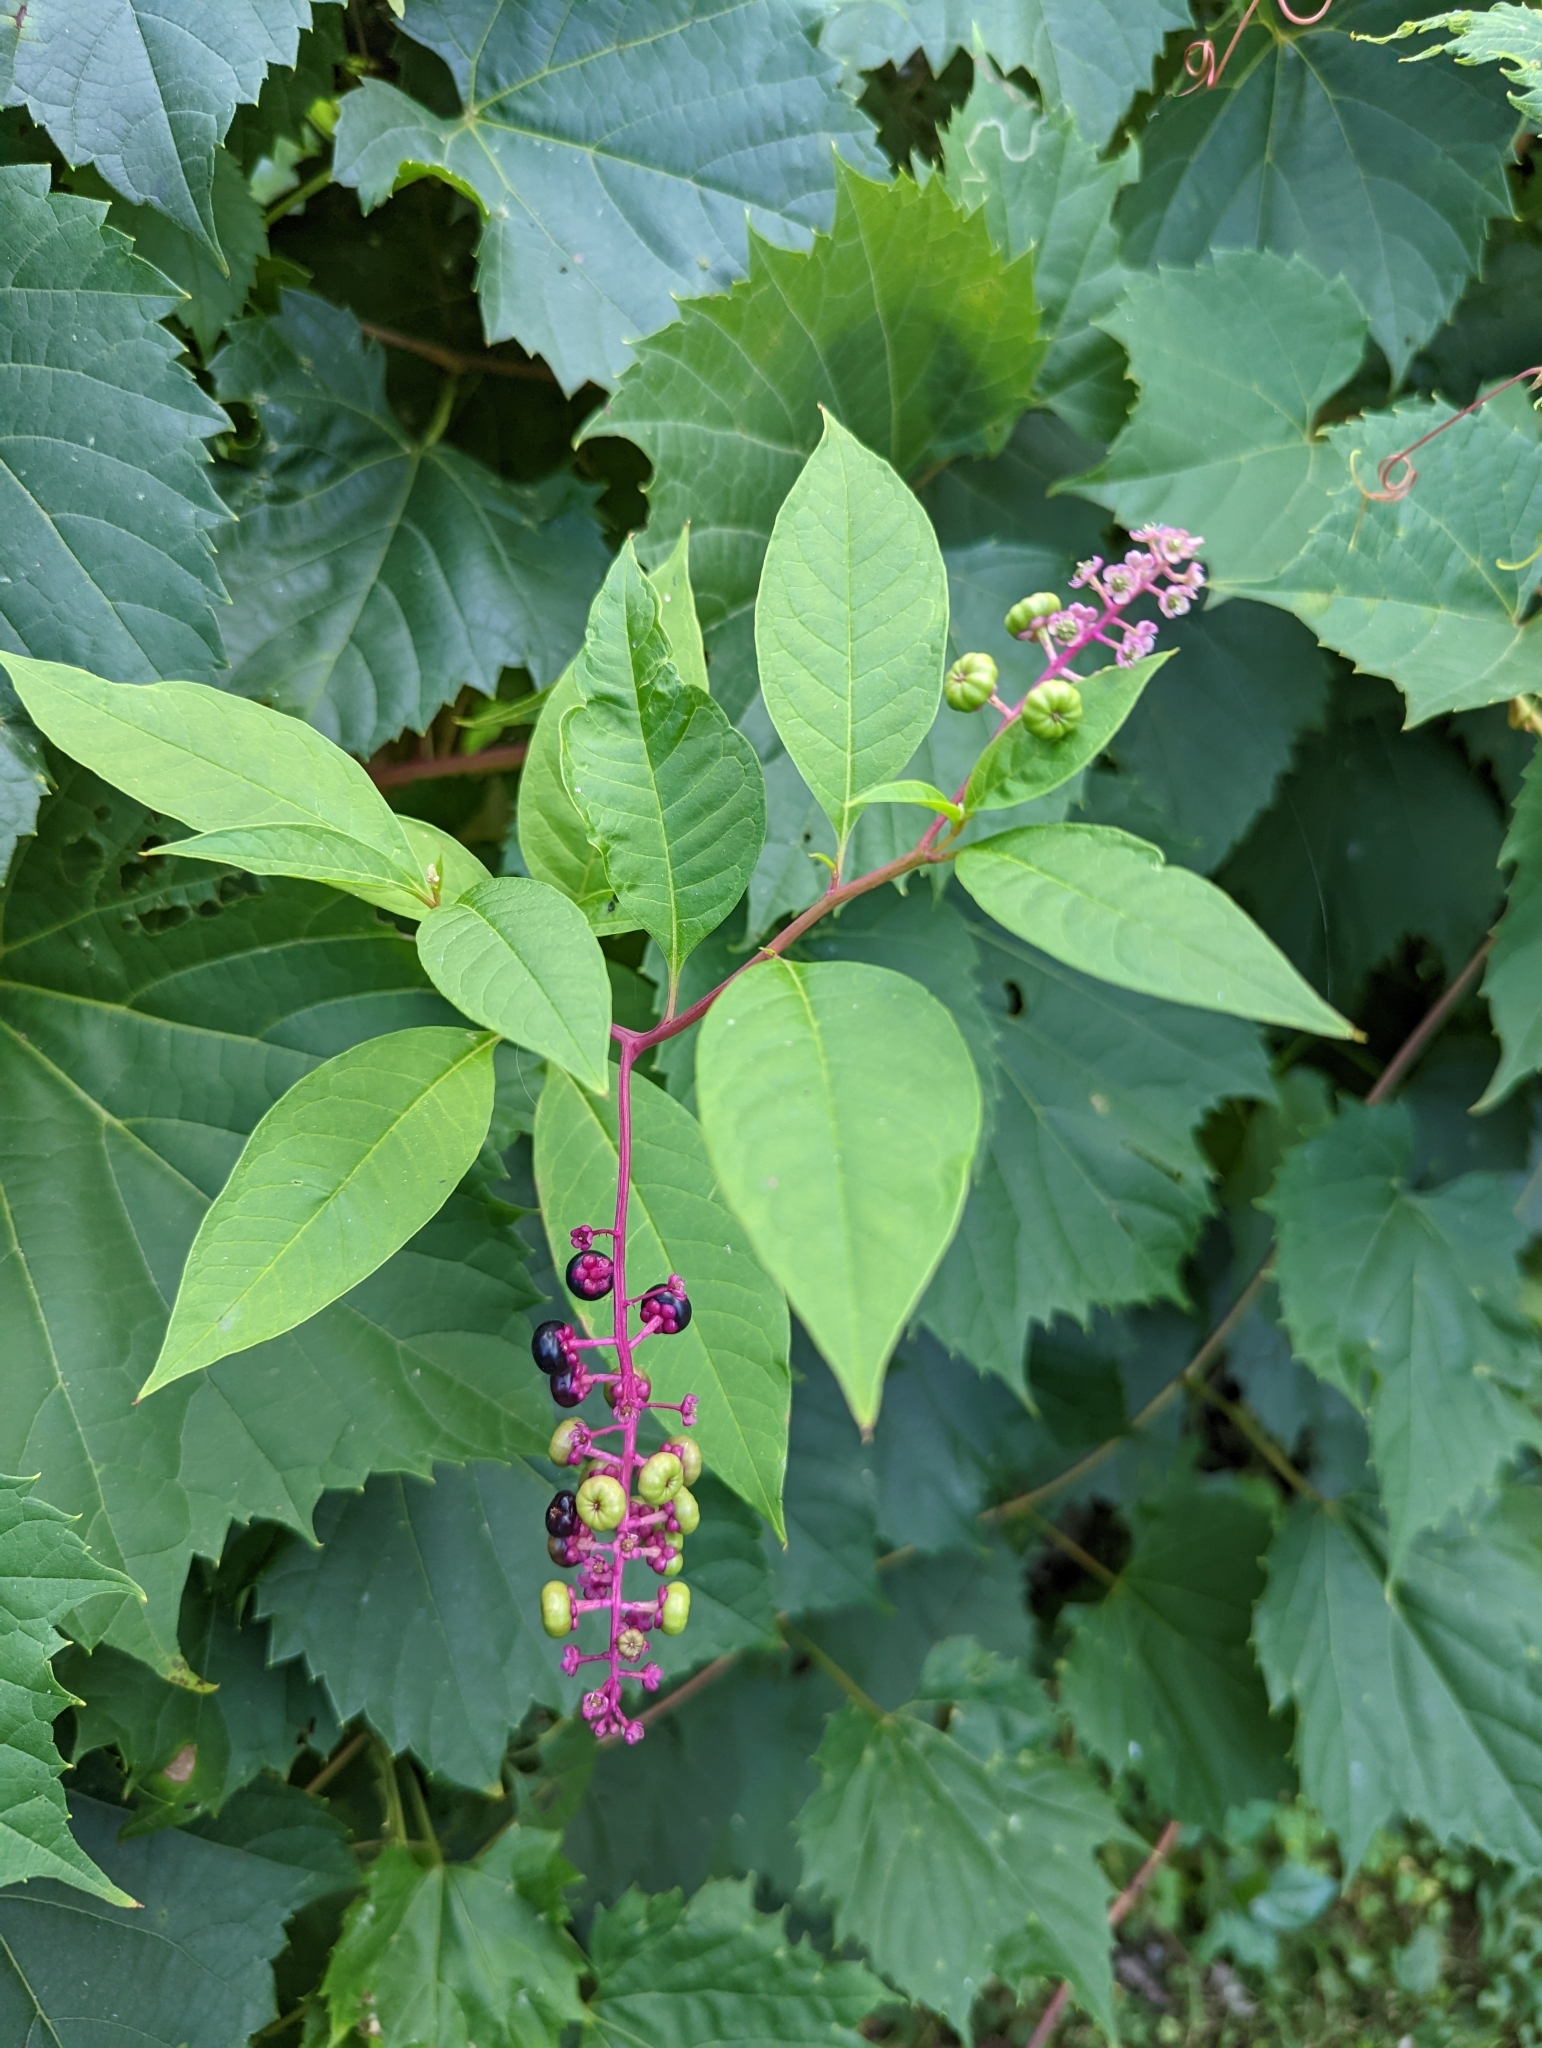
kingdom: Plantae
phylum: Tracheophyta
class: Magnoliopsida
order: Caryophyllales
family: Phytolaccaceae
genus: Phytolacca
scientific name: Phytolacca americana
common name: American pokeweed
